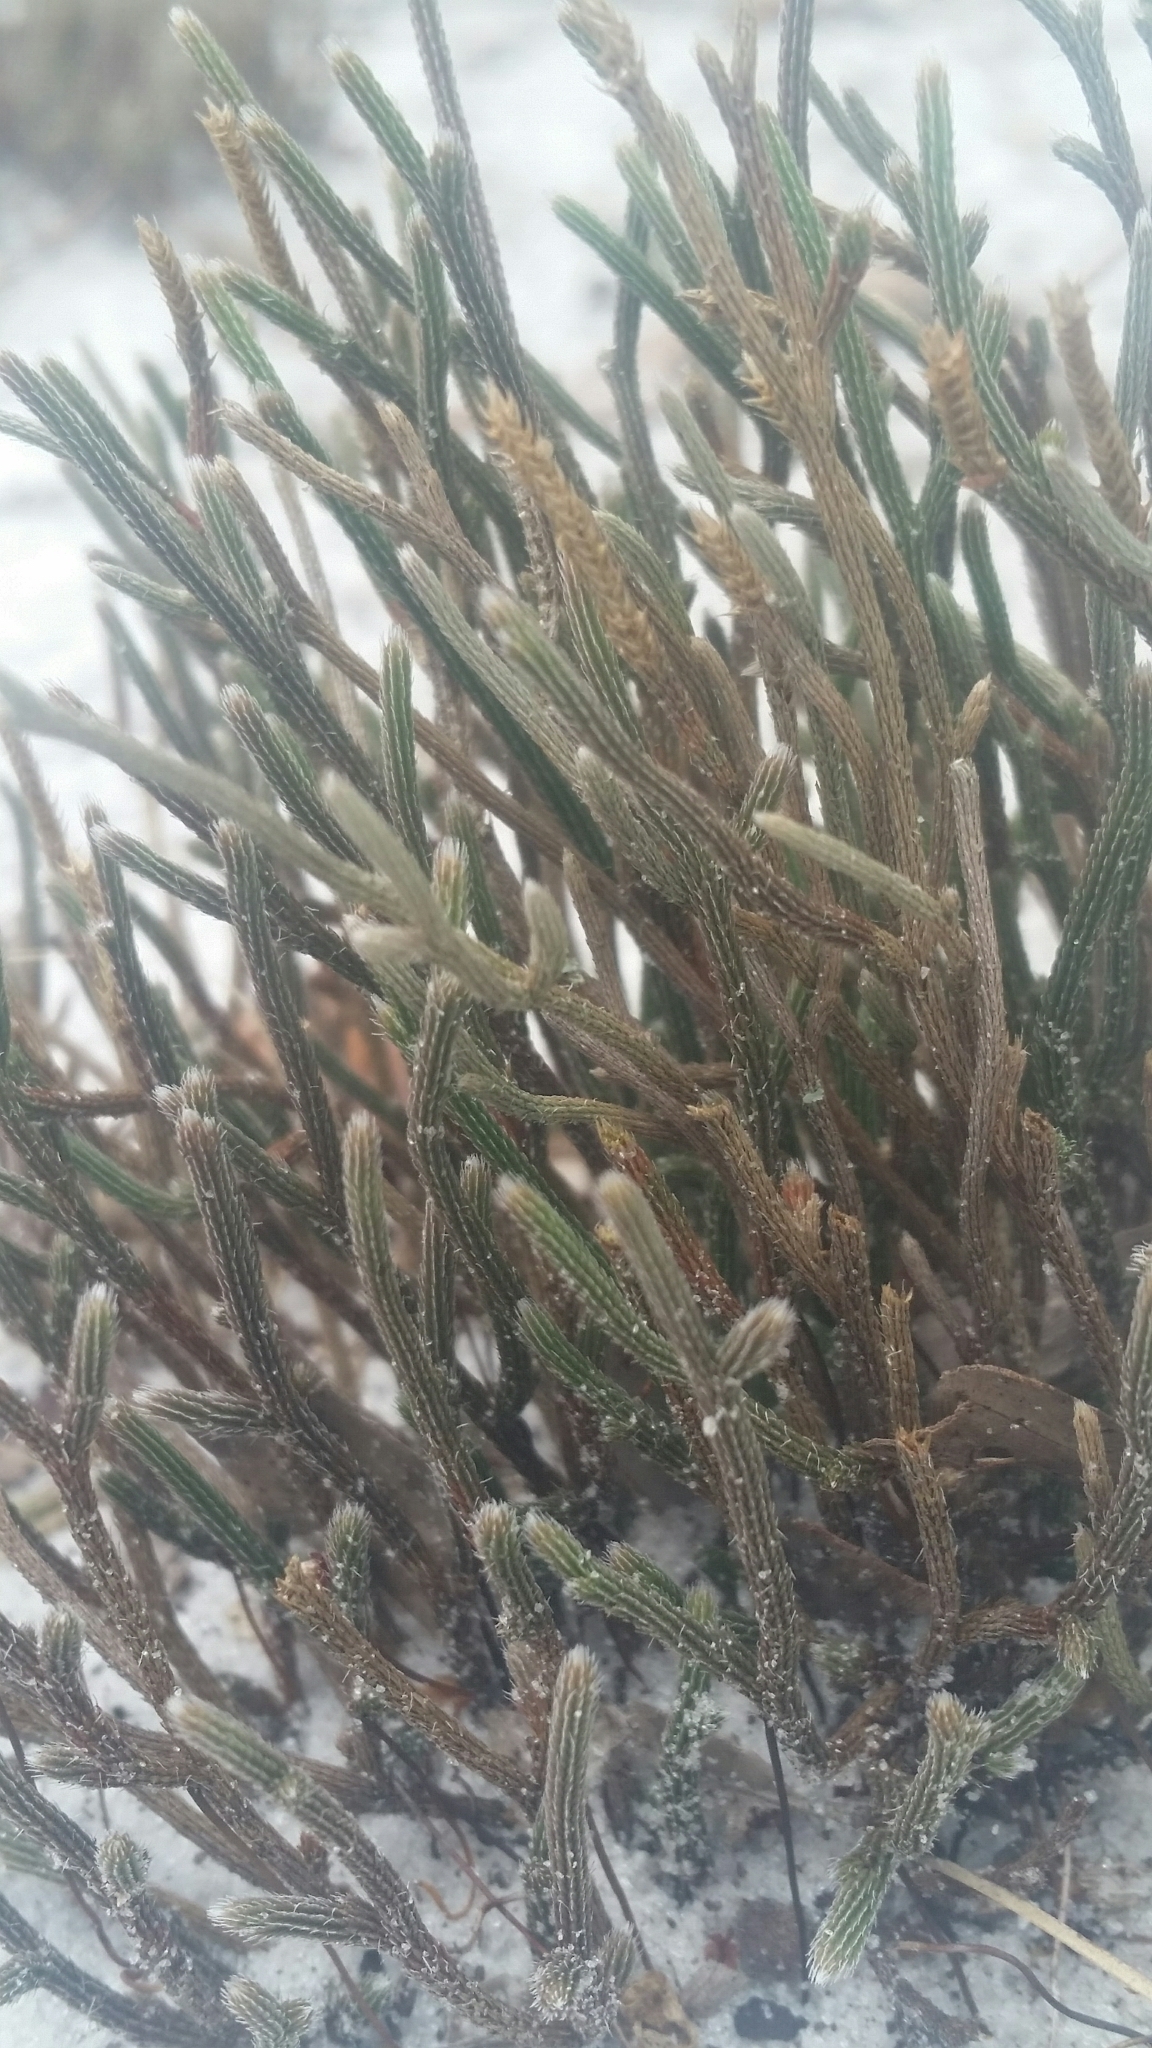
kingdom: Plantae
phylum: Tracheophyta
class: Lycopodiopsida
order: Selaginellales
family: Selaginellaceae
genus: Selaginella
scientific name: Selaginella arenicola
